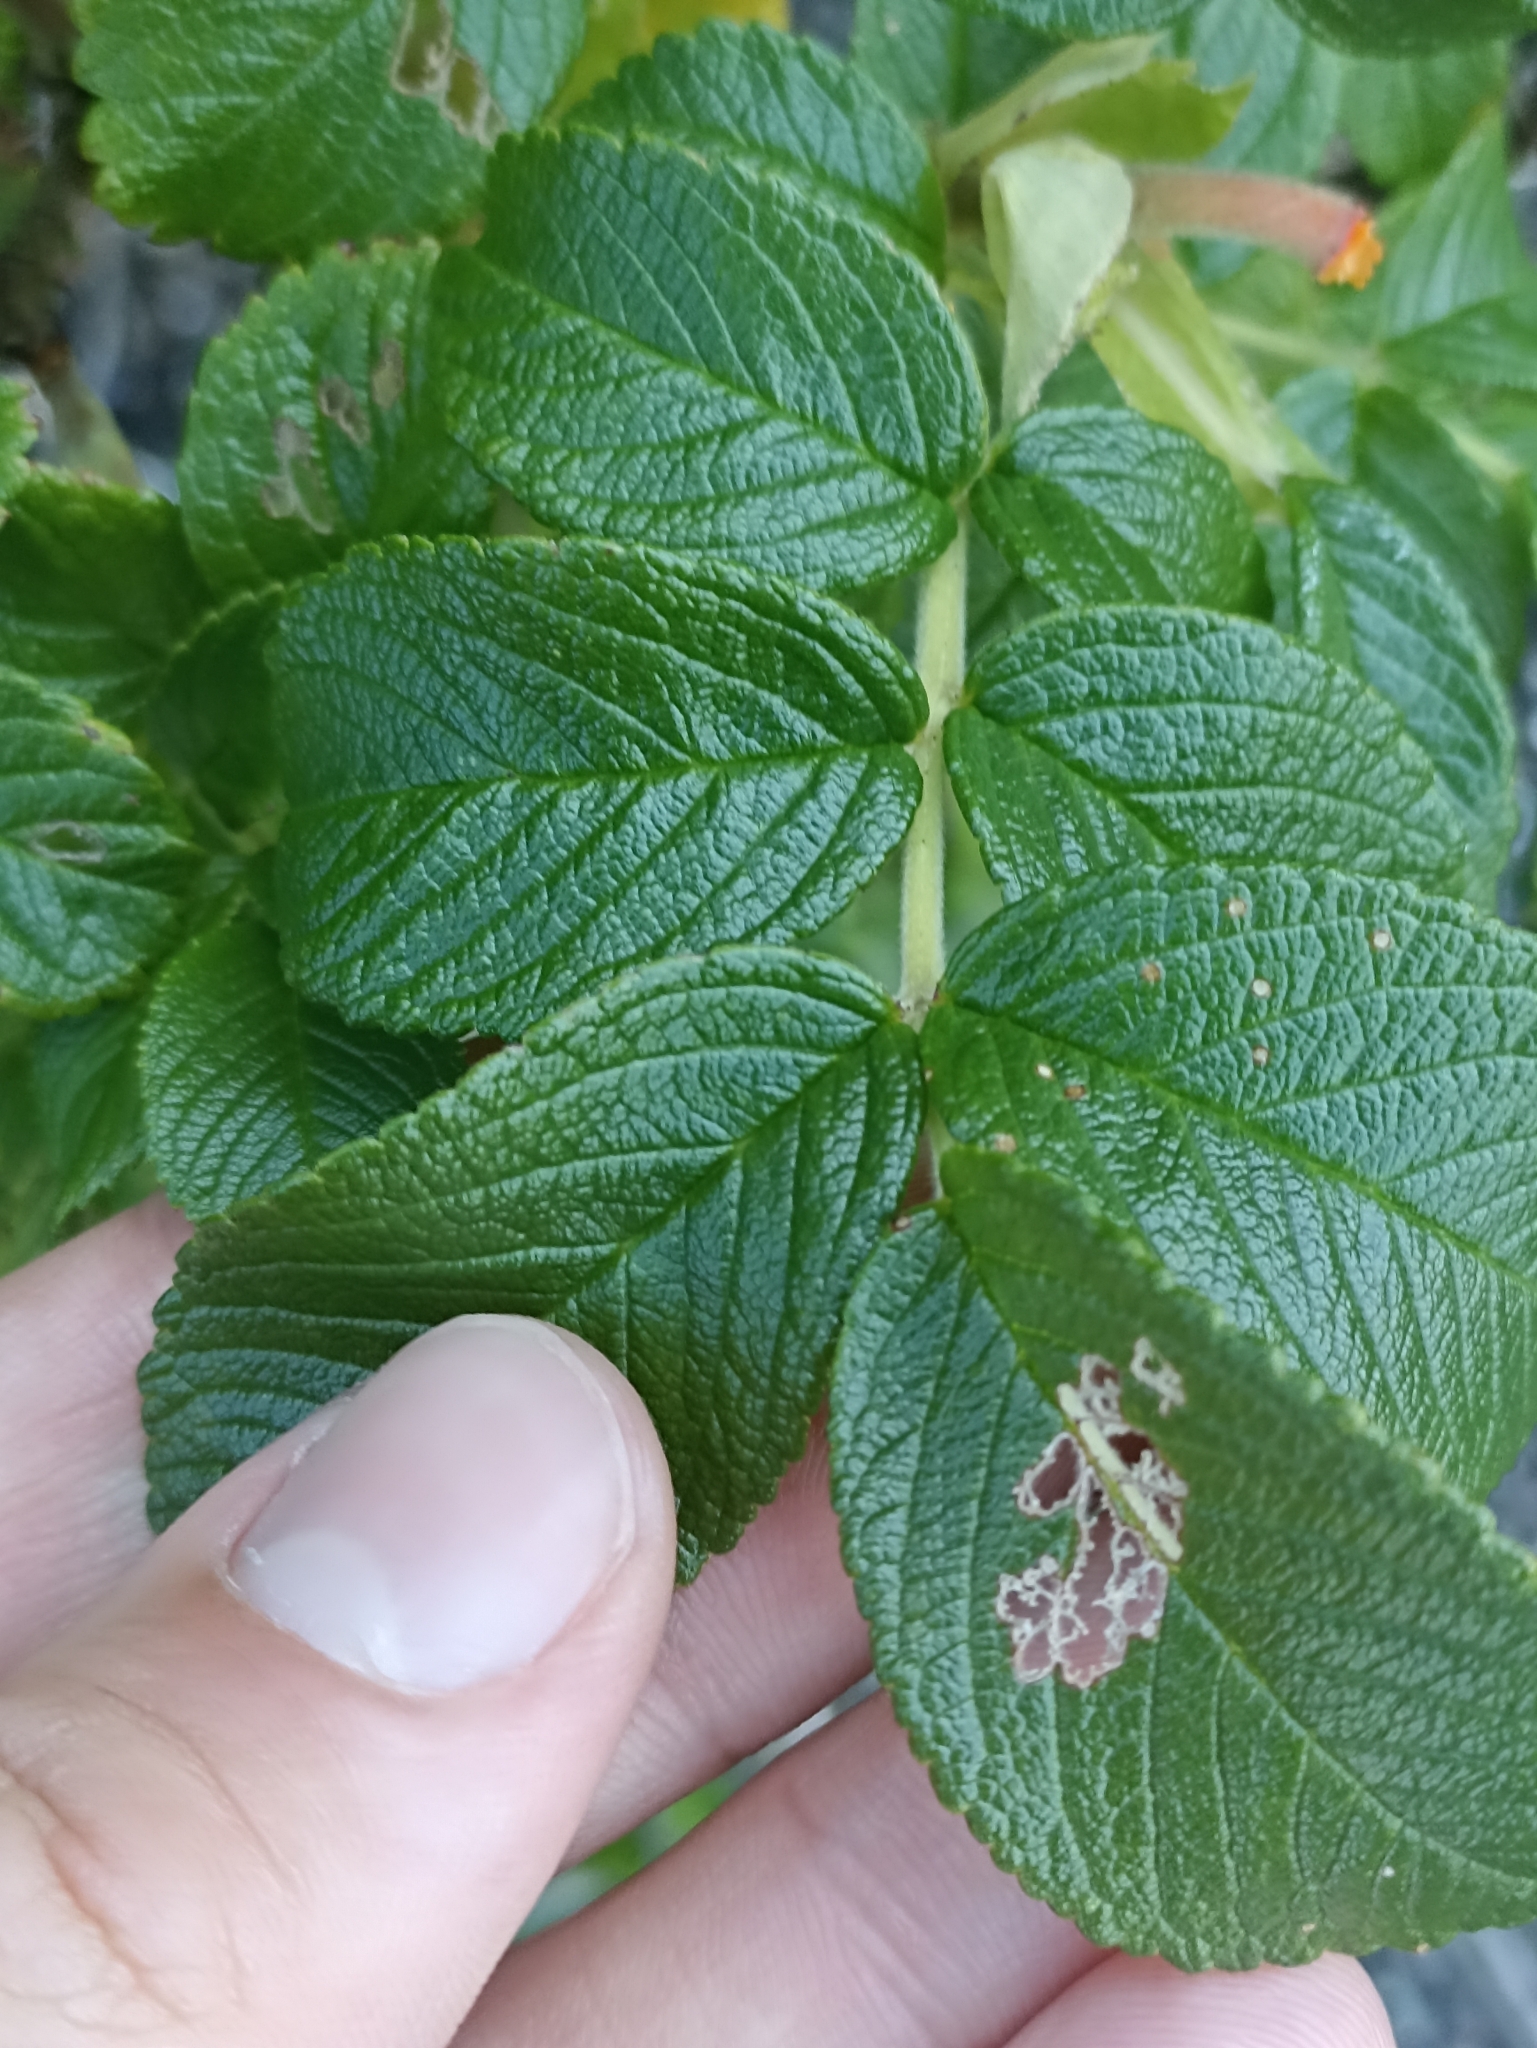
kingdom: Plantae
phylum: Tracheophyta
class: Magnoliopsida
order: Rosales
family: Rosaceae
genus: Rosa
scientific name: Rosa rugosa
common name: Japanese rose
